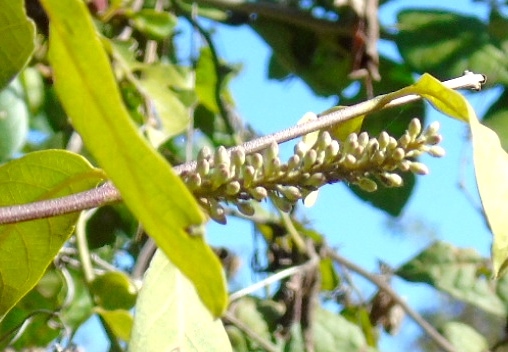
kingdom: Plantae
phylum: Tracheophyta
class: Magnoliopsida
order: Myrtales
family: Combretaceae
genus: Combretum
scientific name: Combretum farinosum
